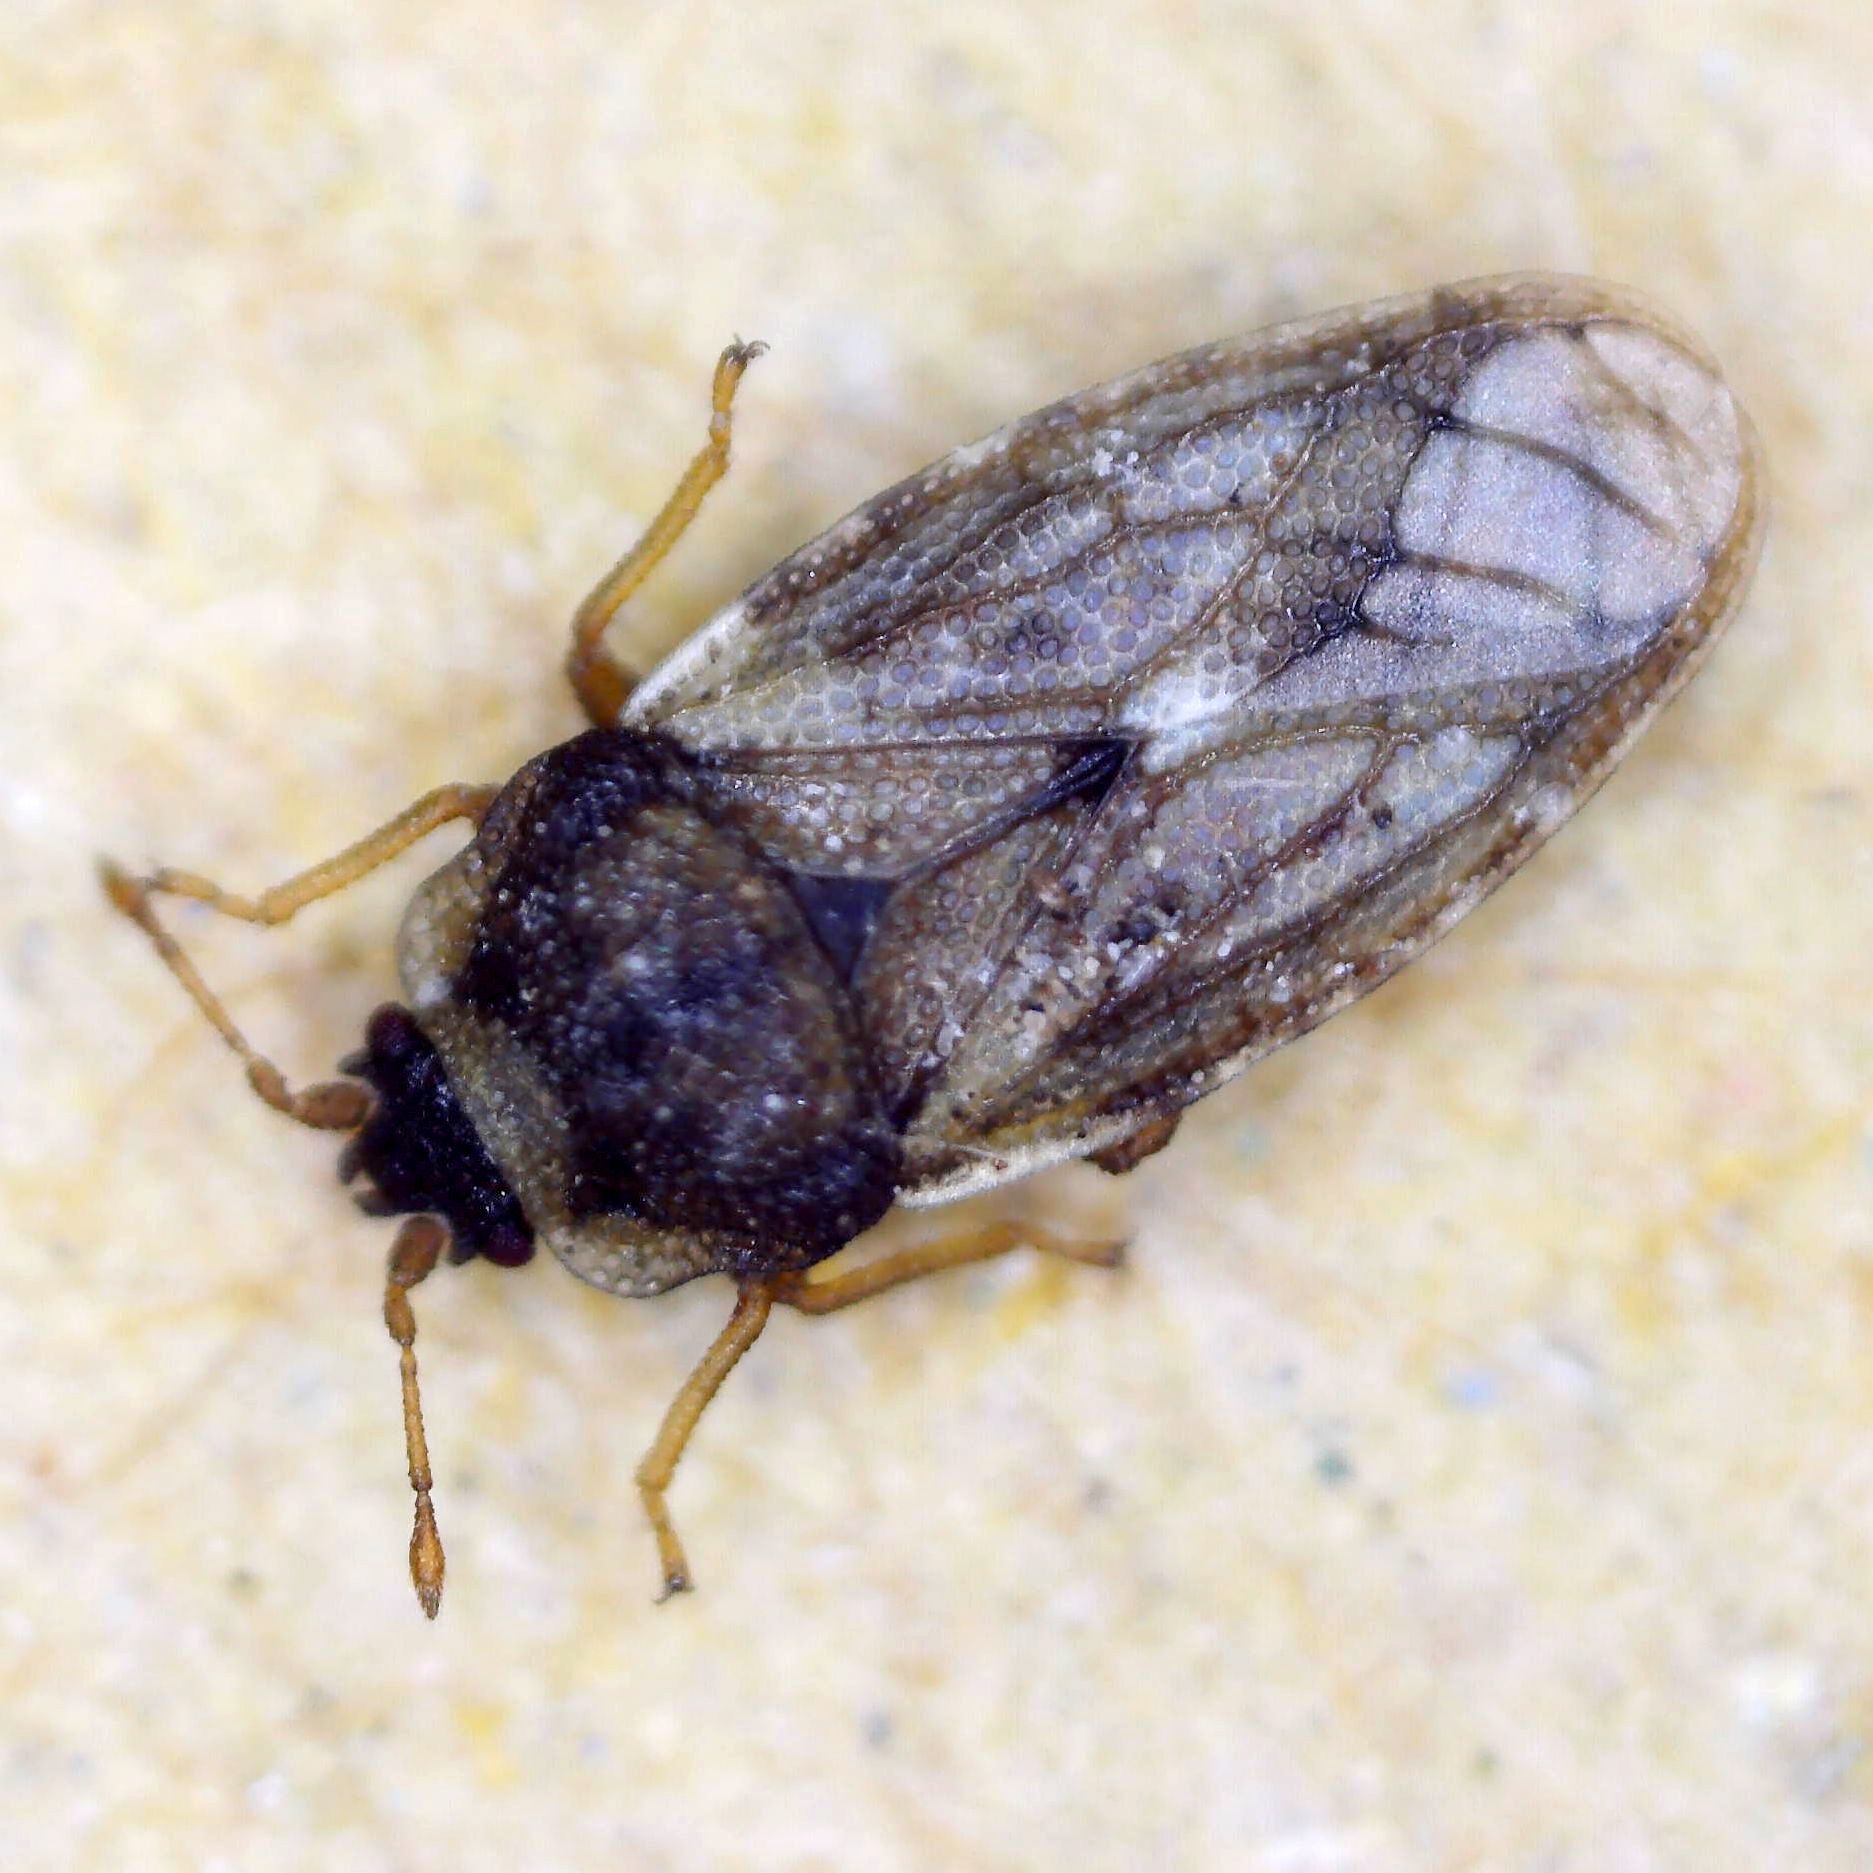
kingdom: Animalia
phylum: Arthropoda
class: Insecta
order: Hemiptera
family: Piesmatidae
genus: Piesma
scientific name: Piesma maculata
